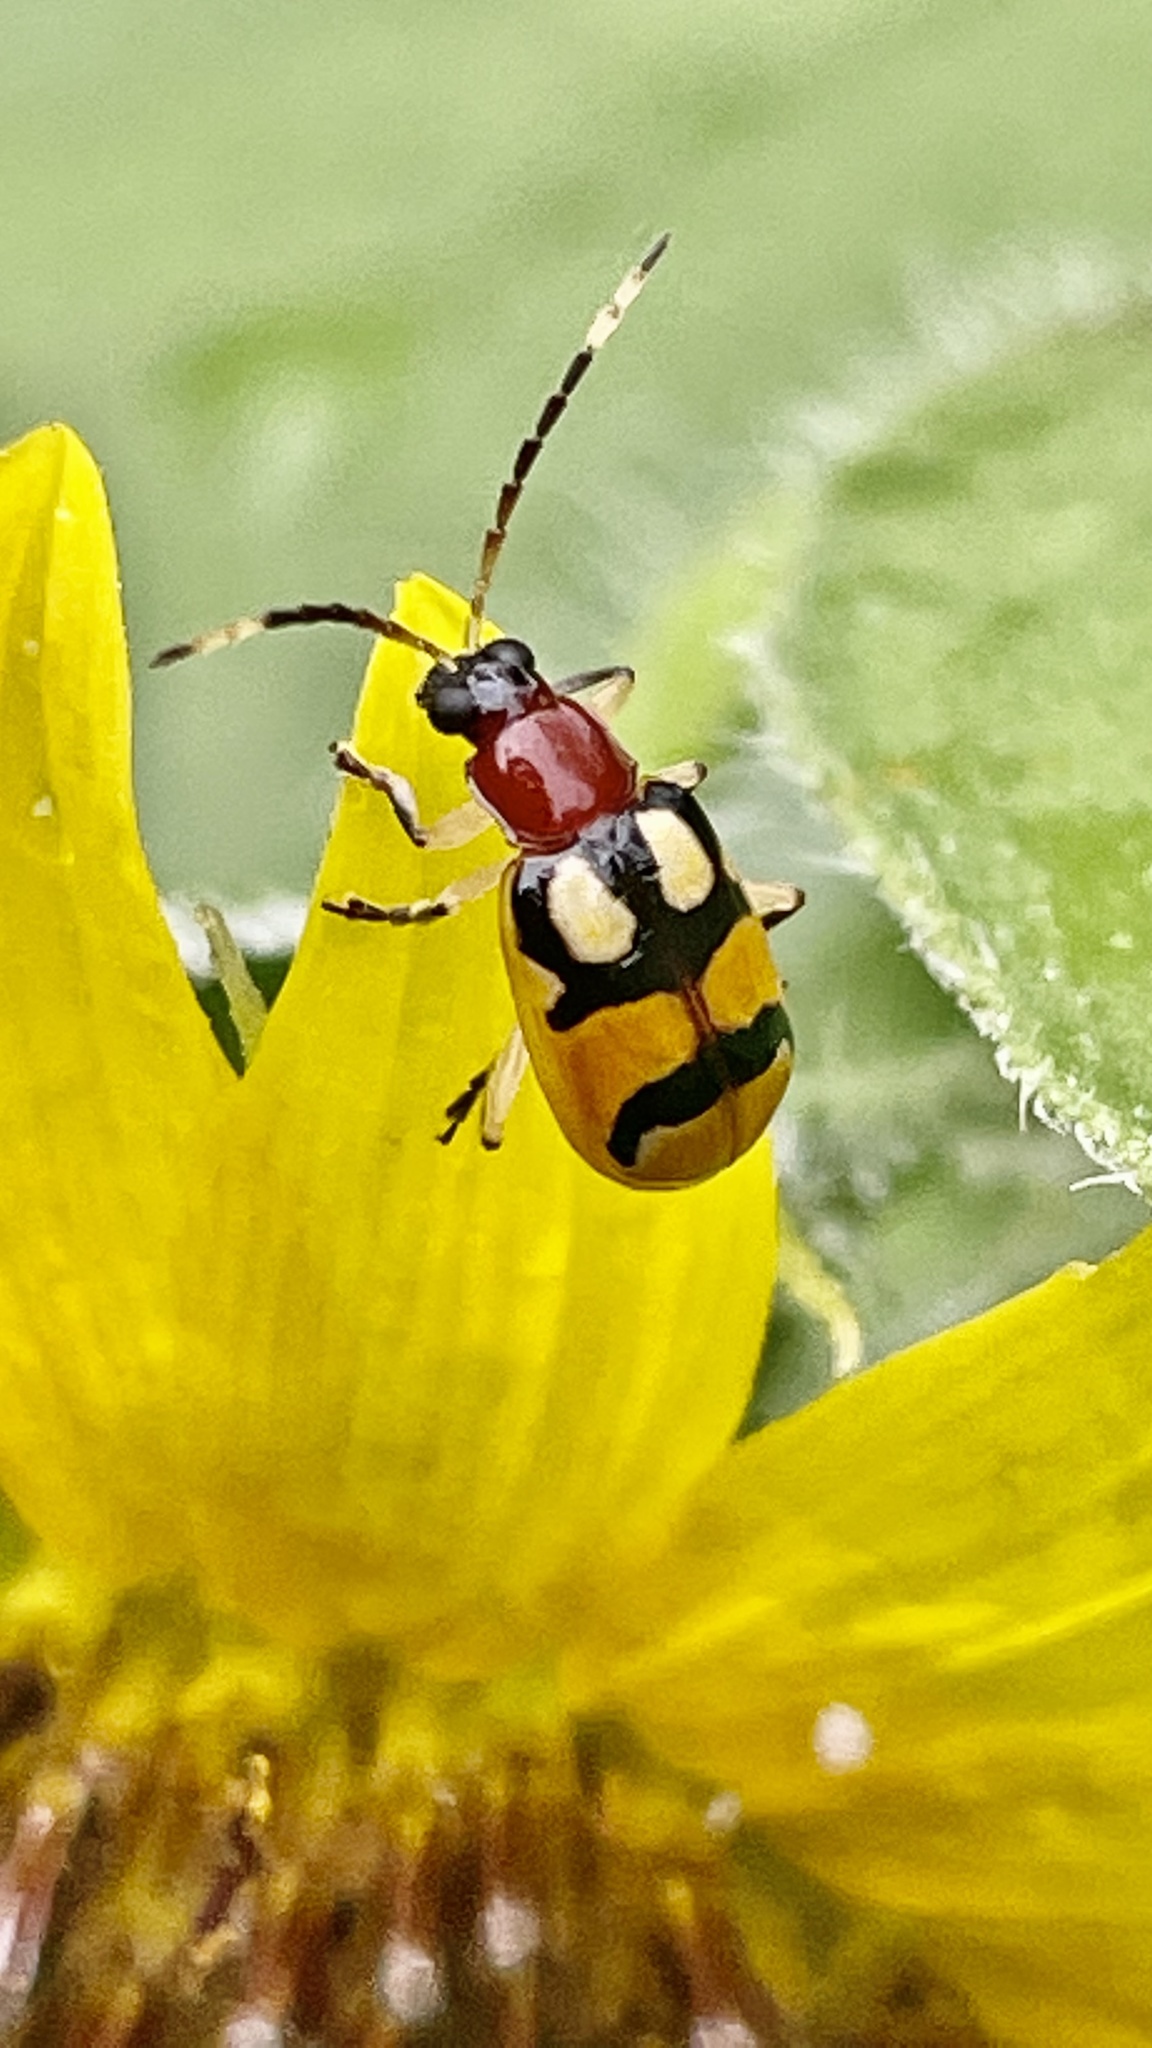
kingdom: Animalia
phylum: Arthropoda
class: Insecta
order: Coleoptera
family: Chrysomelidae
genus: Diabrotica
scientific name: Diabrotica adelpha
